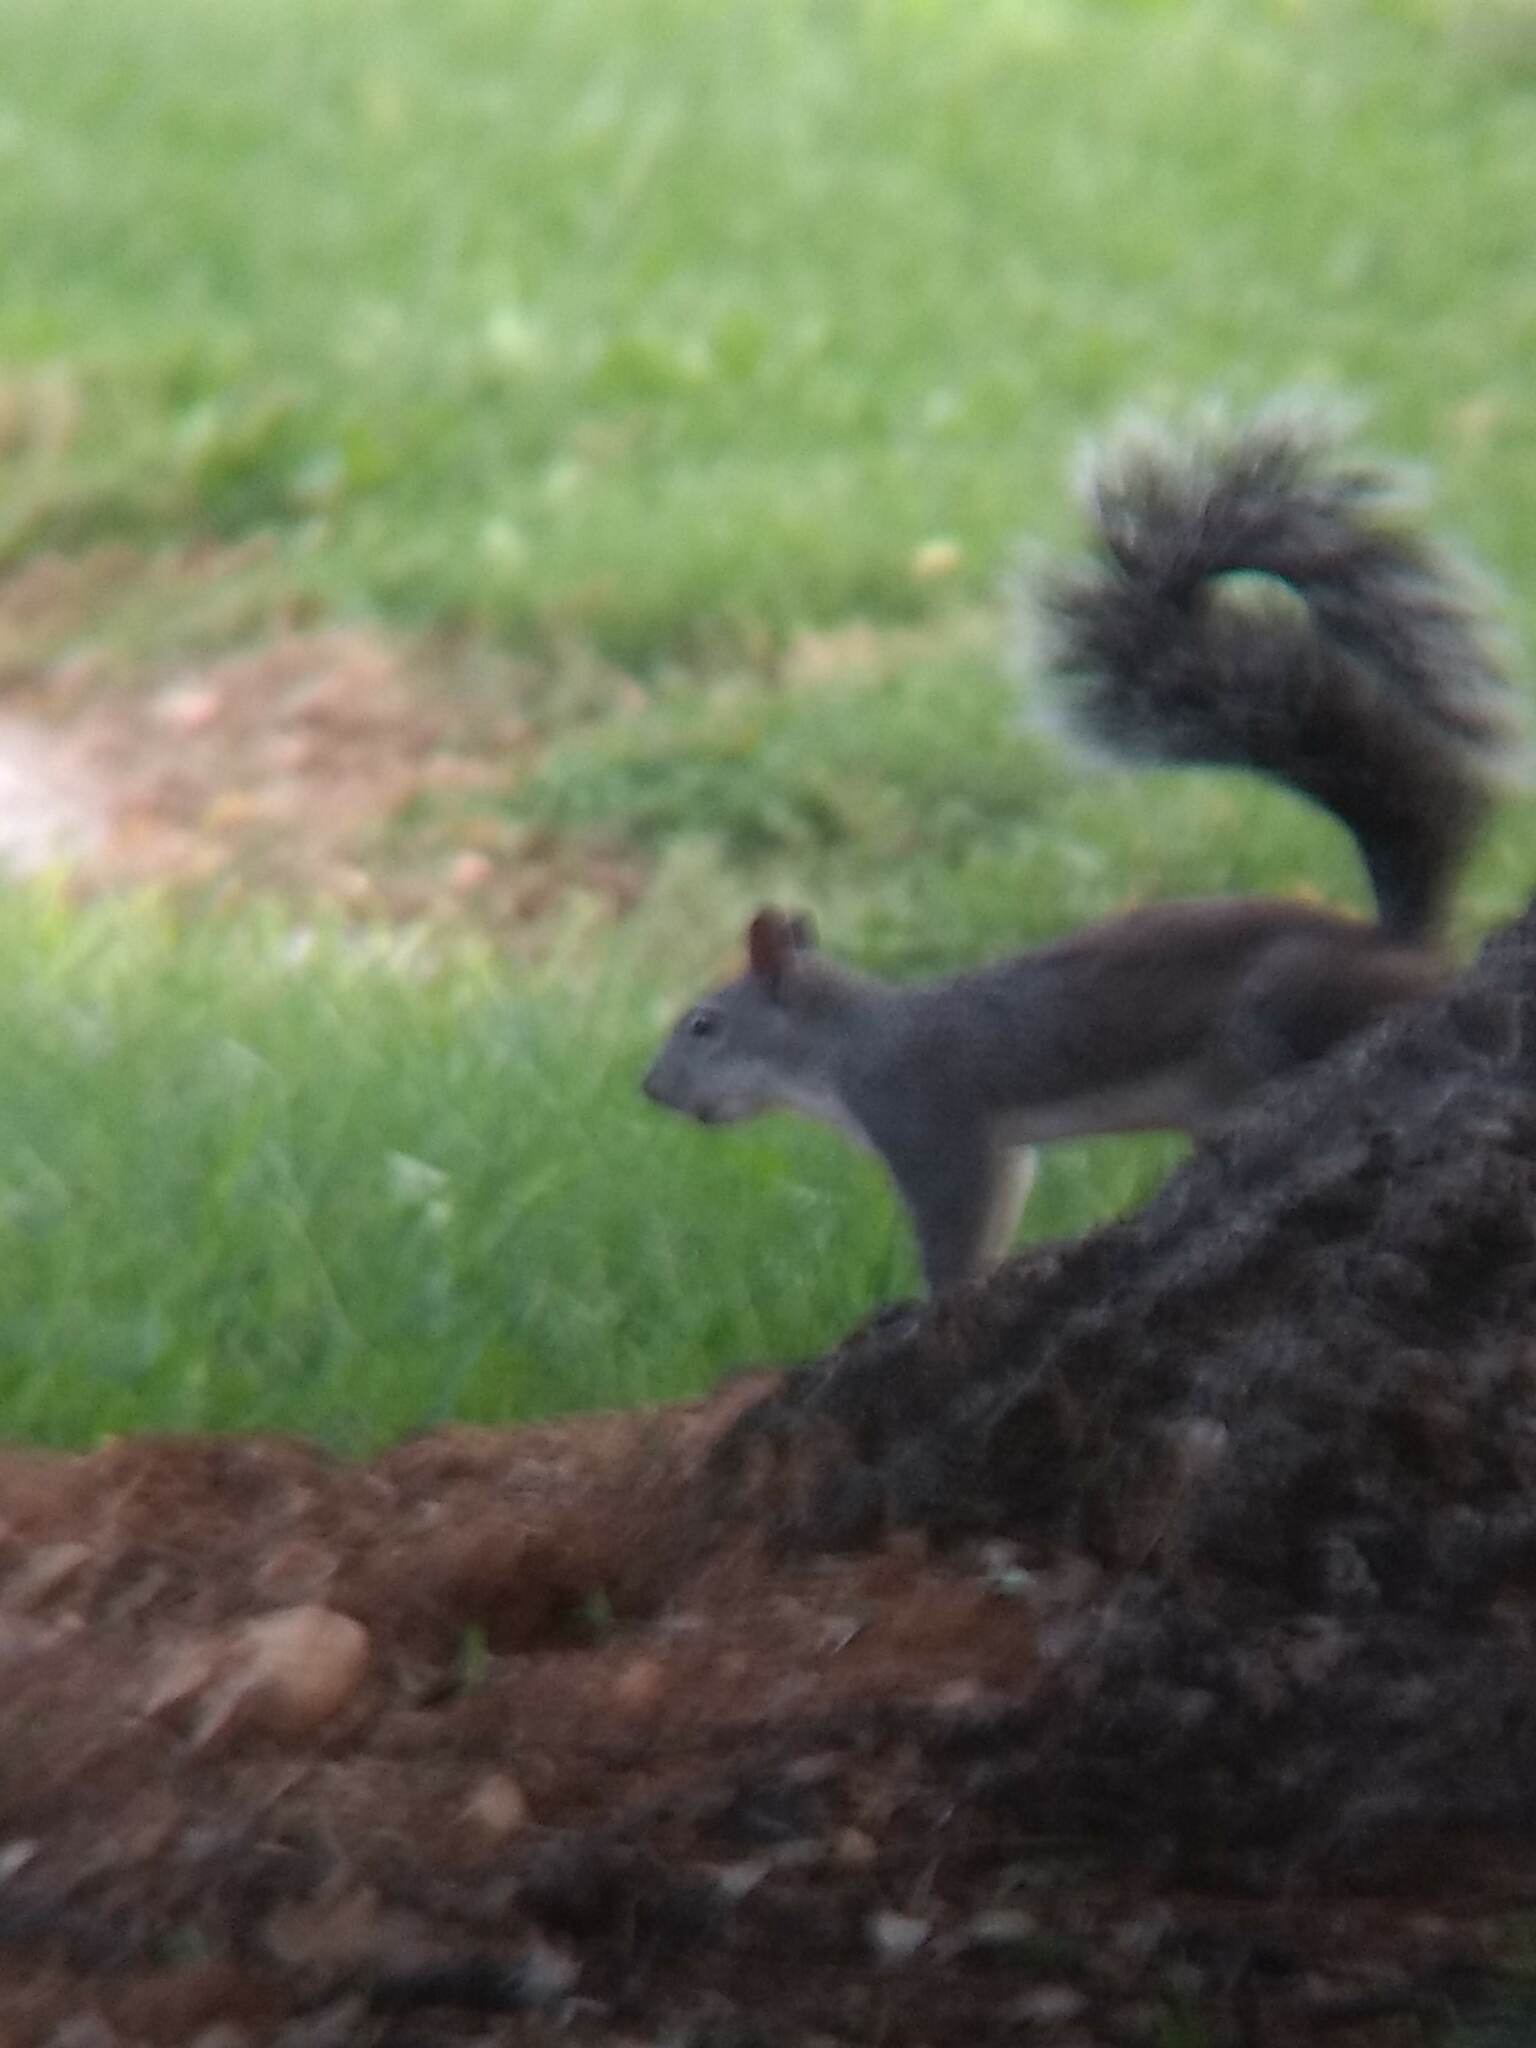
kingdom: Animalia
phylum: Chordata
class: Mammalia
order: Rodentia
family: Sciuridae
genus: Sciurus
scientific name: Sciurus griseus
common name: Western gray squirrel
